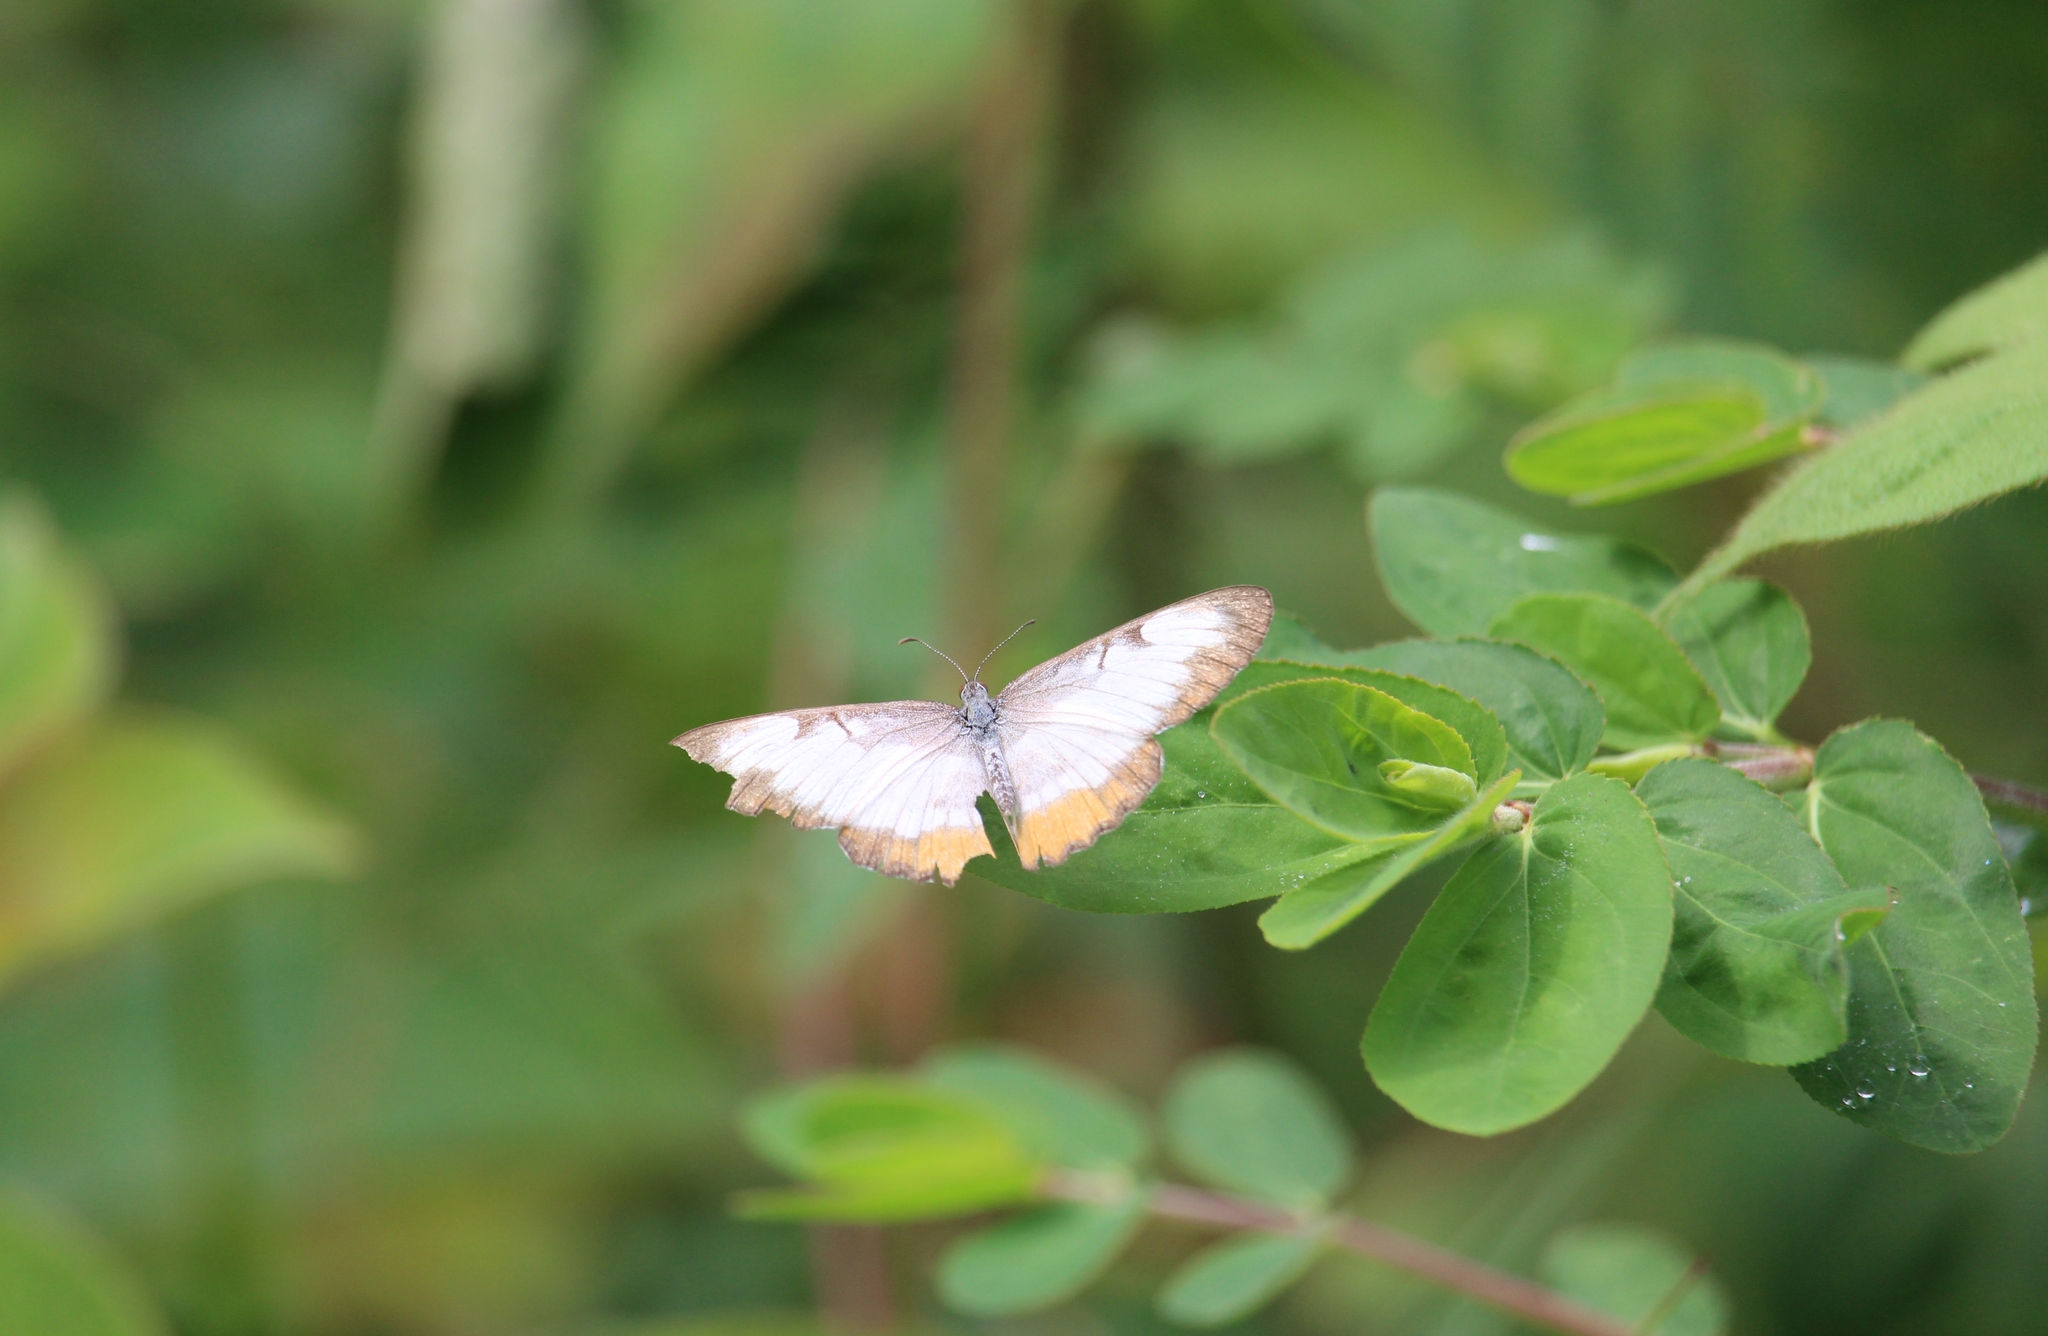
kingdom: Animalia
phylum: Arthropoda
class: Insecta
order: Lepidoptera
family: Nymphalidae
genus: Mestra
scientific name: Mestra amymone
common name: Common mestra
